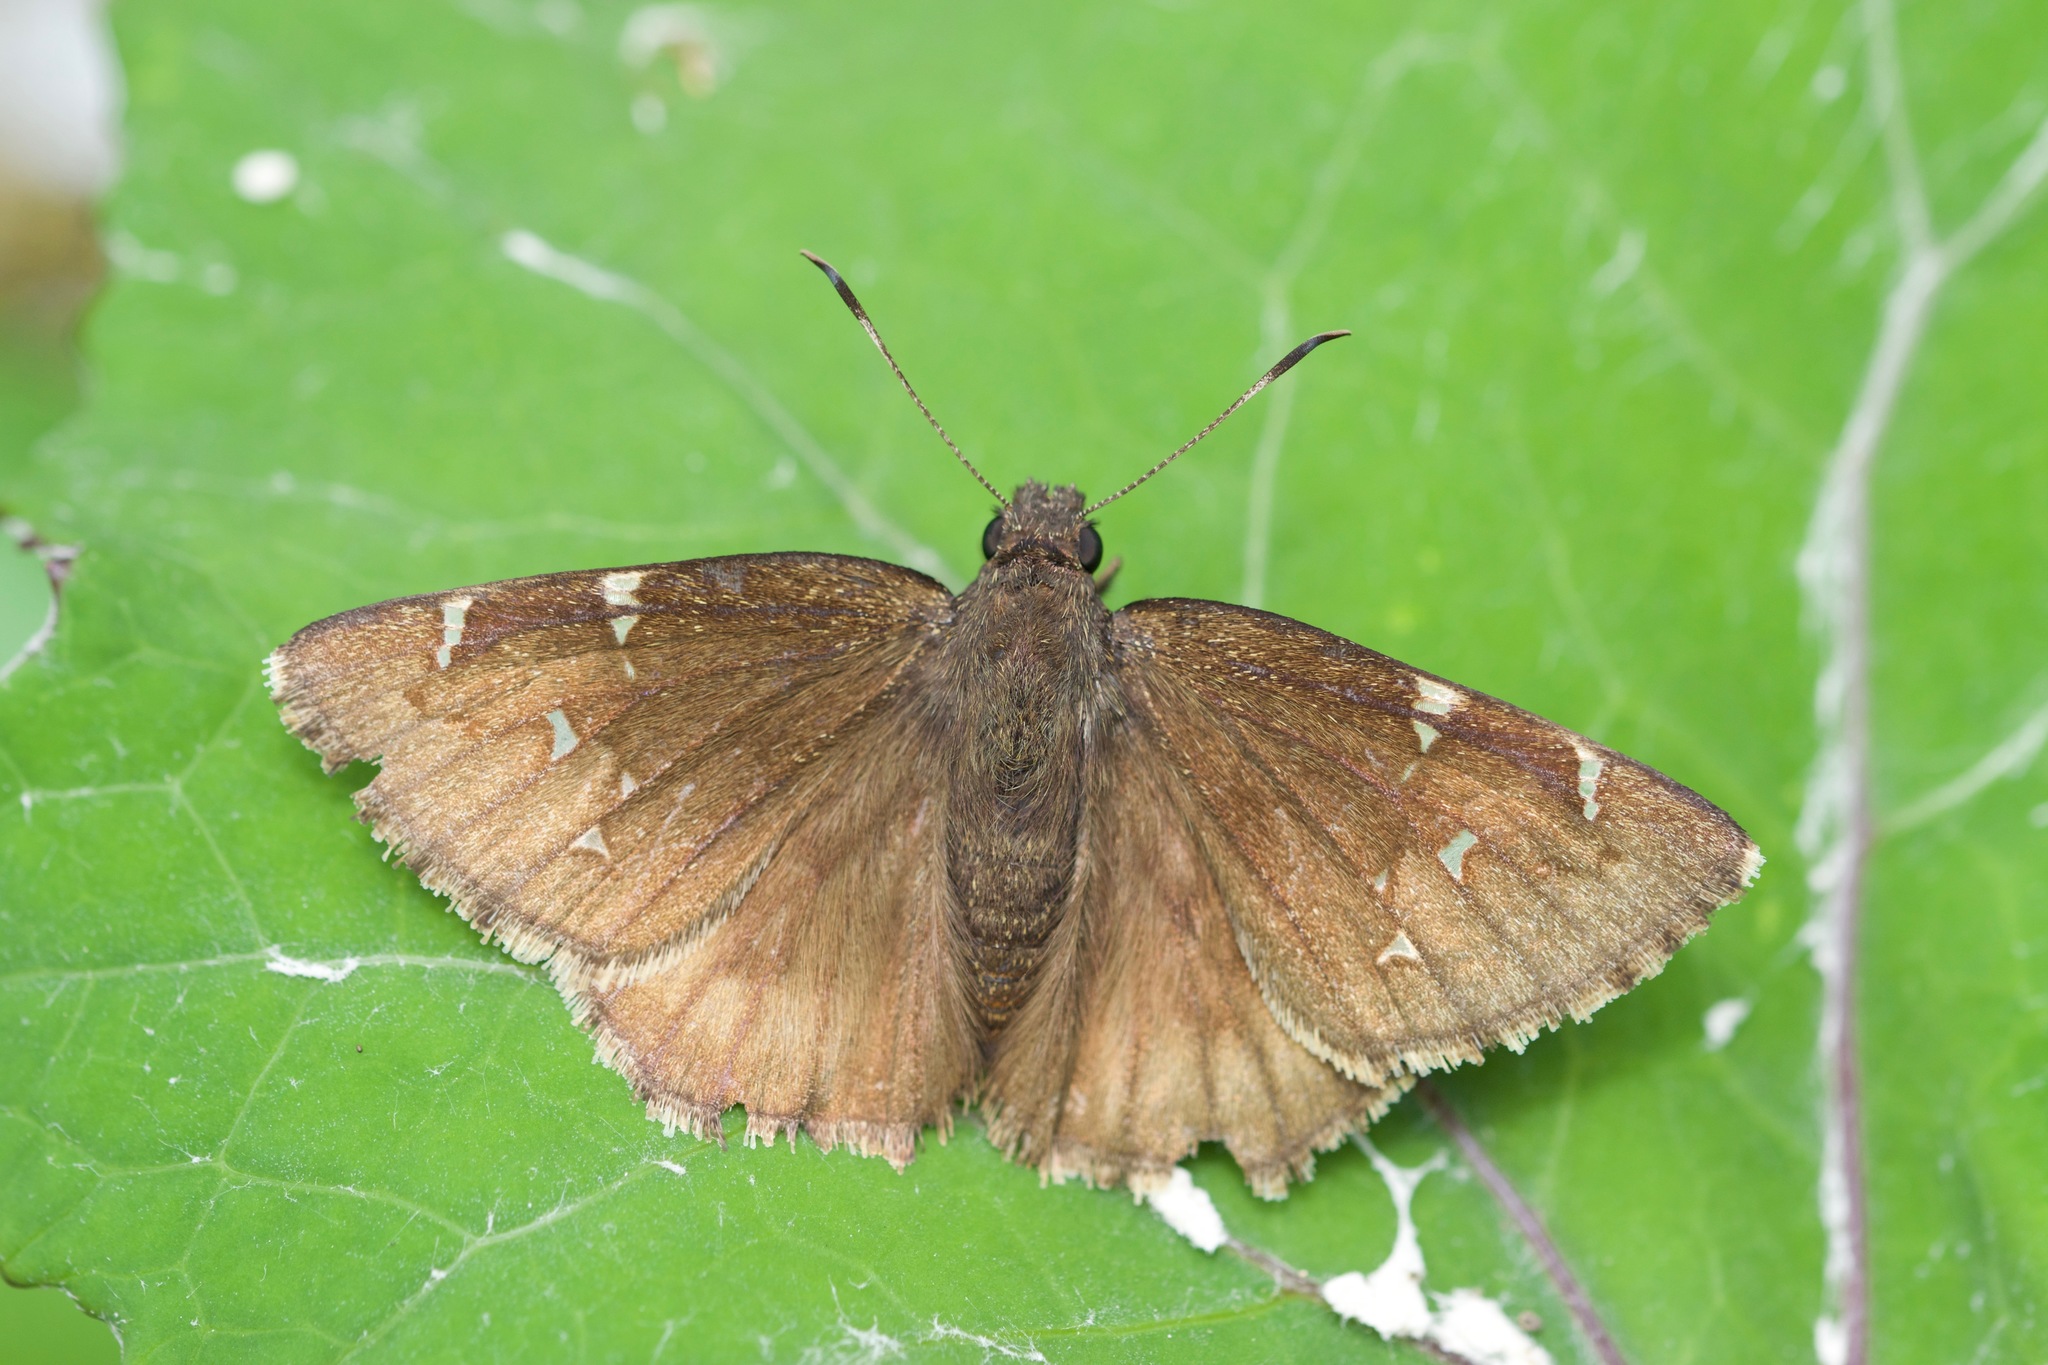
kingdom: Animalia
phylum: Arthropoda
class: Insecta
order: Lepidoptera
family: Hesperiidae
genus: Thorybes
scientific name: Thorybes pylades
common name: Northern cloudywing
